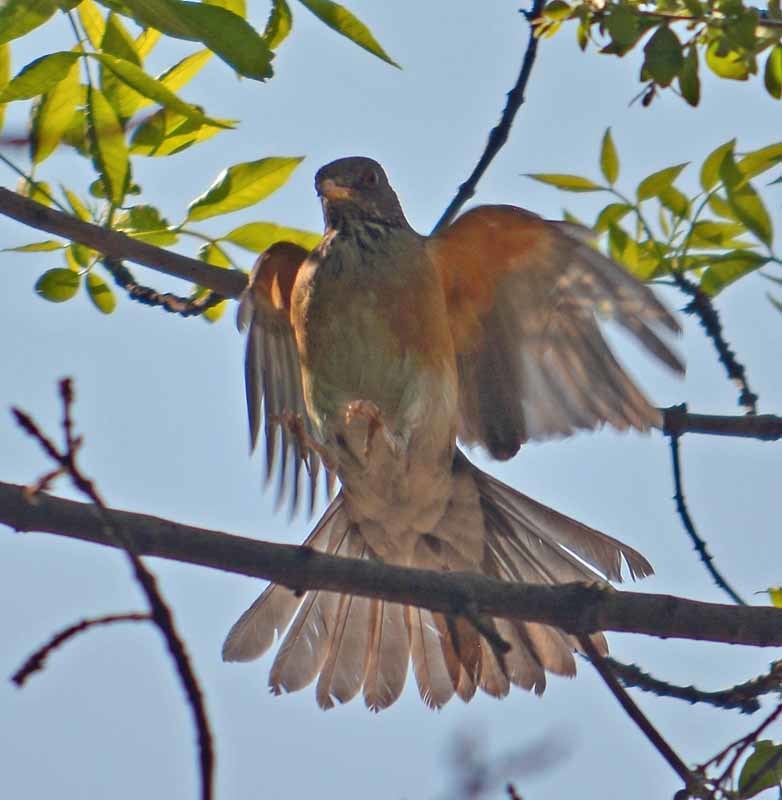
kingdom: Animalia
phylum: Chordata
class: Aves
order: Passeriformes
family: Turdidae
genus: Turdus
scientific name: Turdus rufopalliatus
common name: Rufous-backed robin
